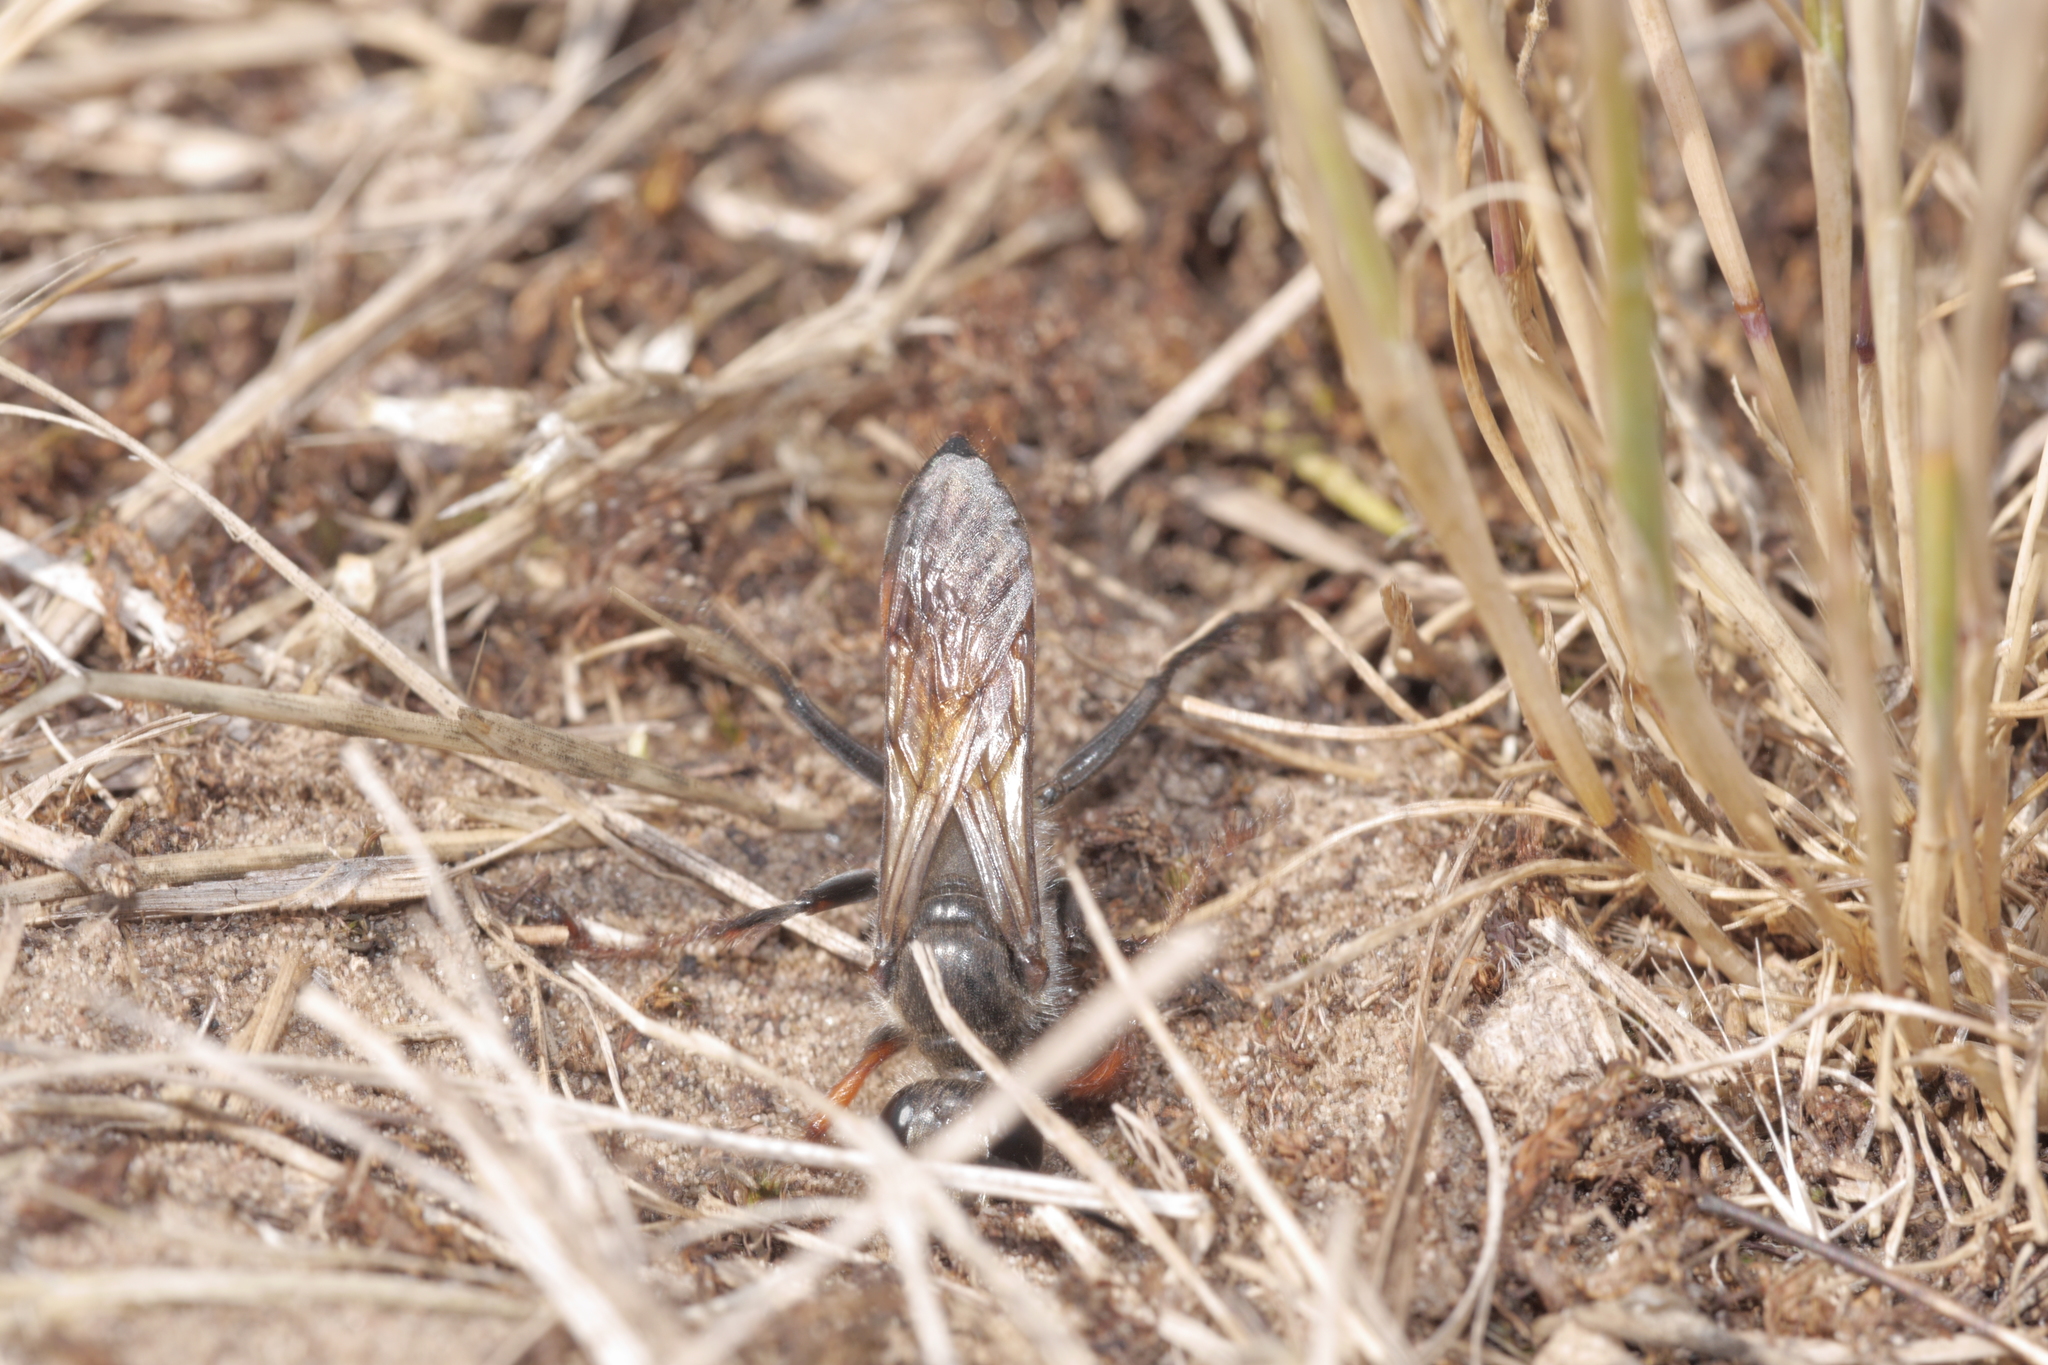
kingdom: Animalia
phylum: Arthropoda
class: Insecta
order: Hymenoptera
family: Sphecidae
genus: Sphex
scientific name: Sphex funerarius
